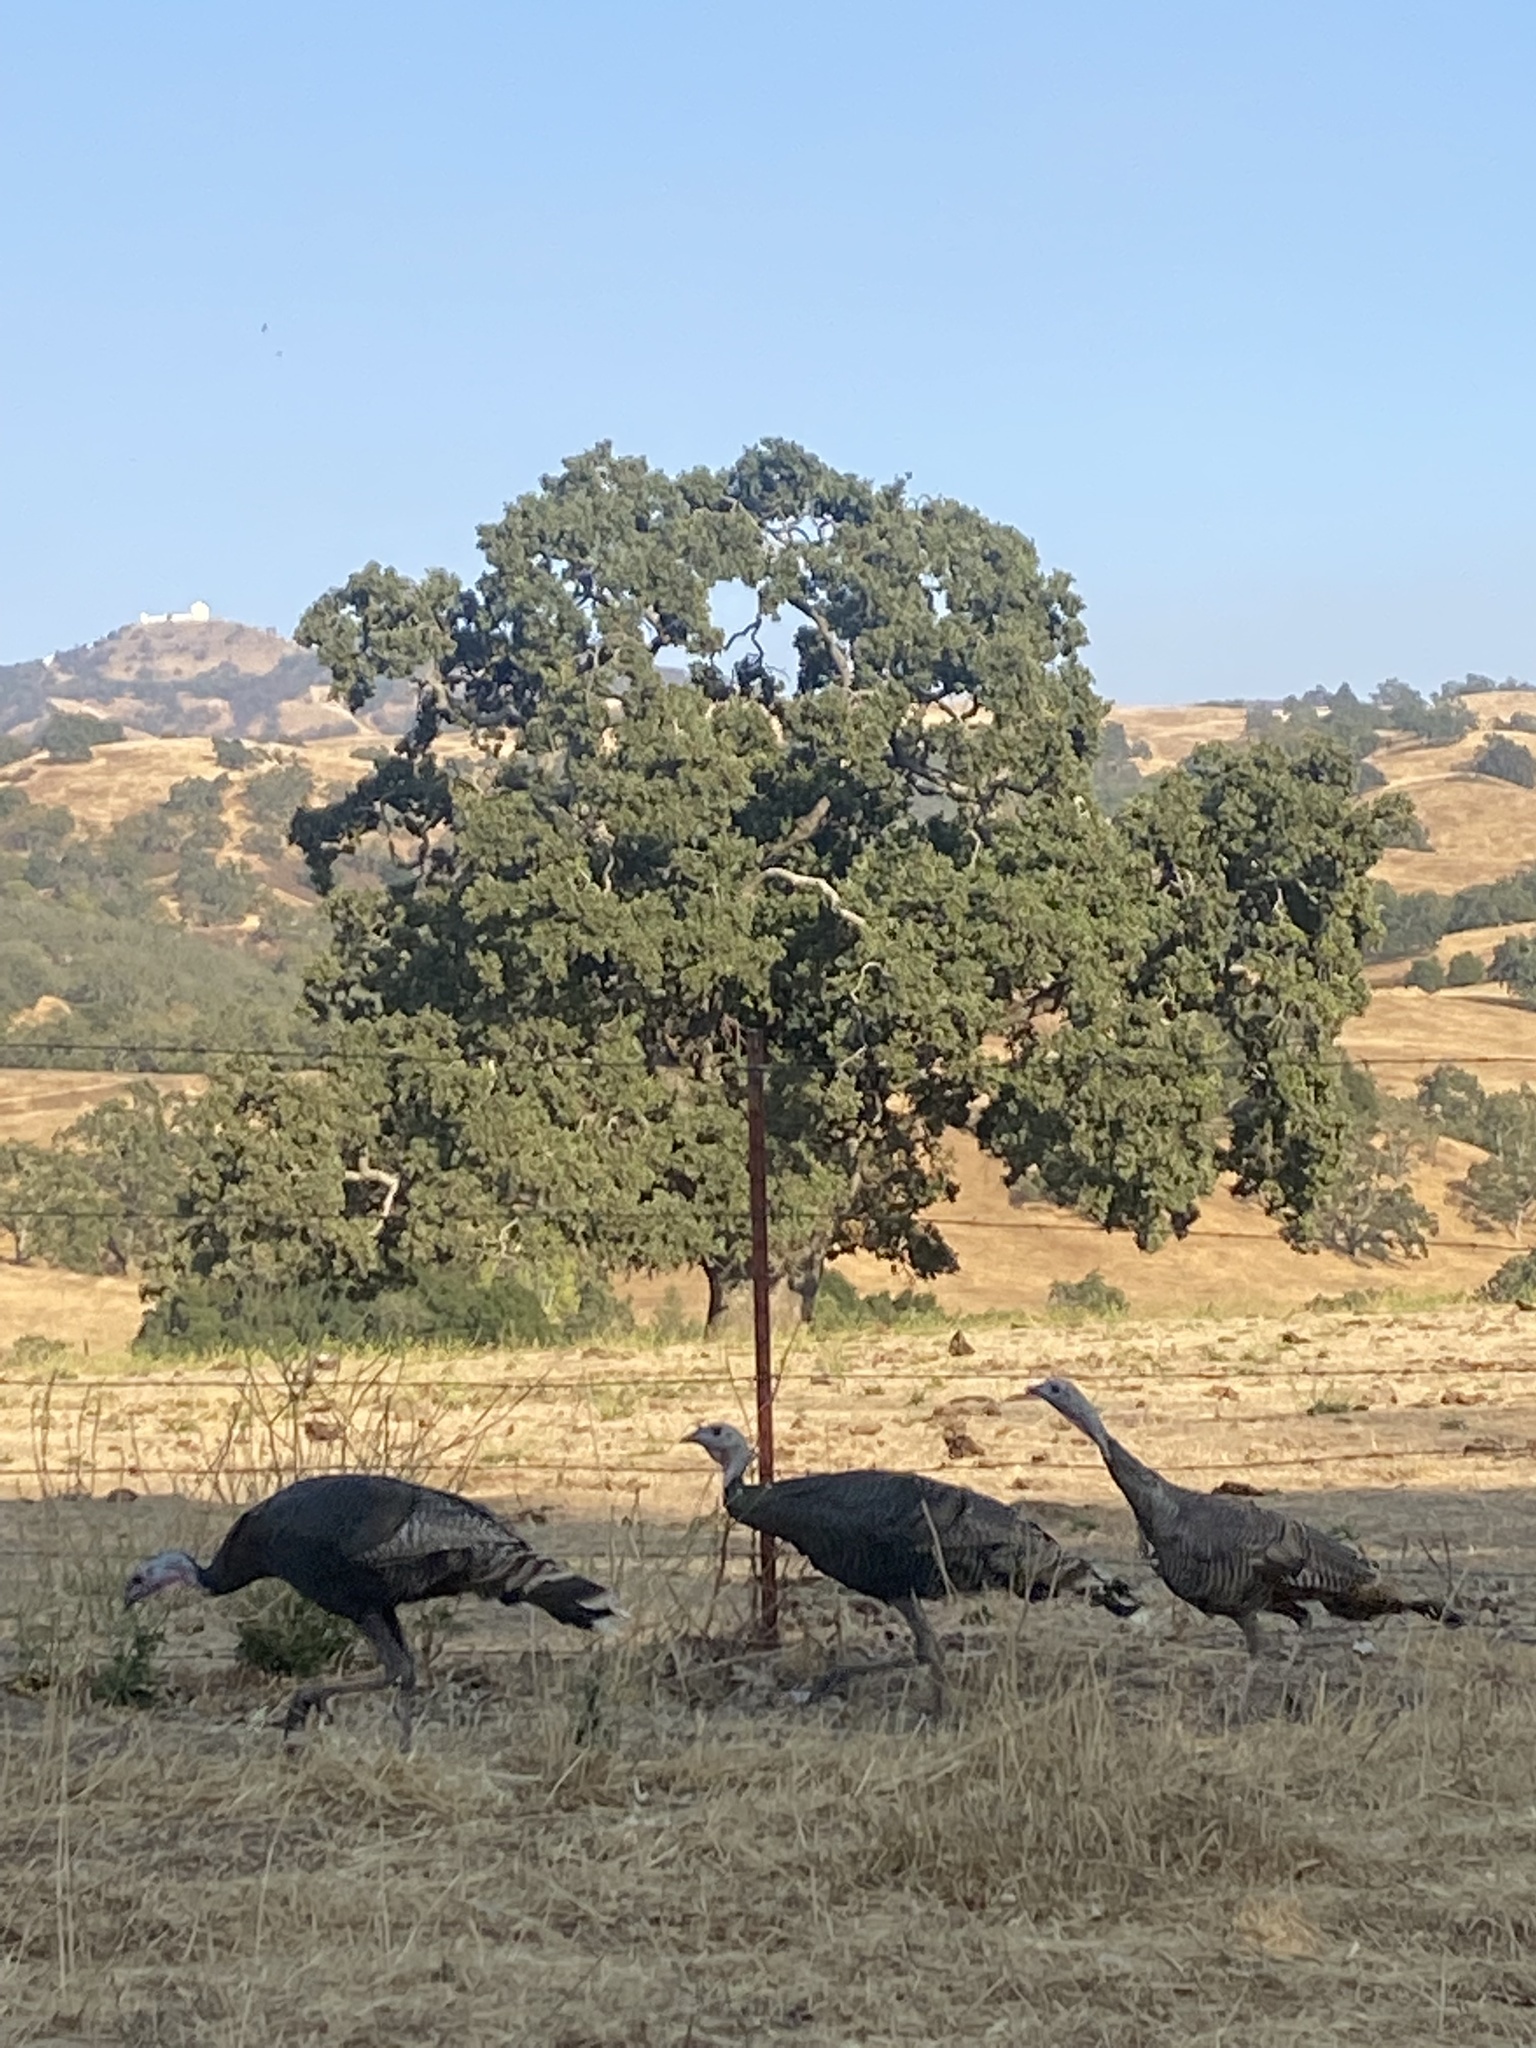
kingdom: Animalia
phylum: Chordata
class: Aves
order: Galliformes
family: Phasianidae
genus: Meleagris
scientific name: Meleagris gallopavo
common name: Wild turkey
